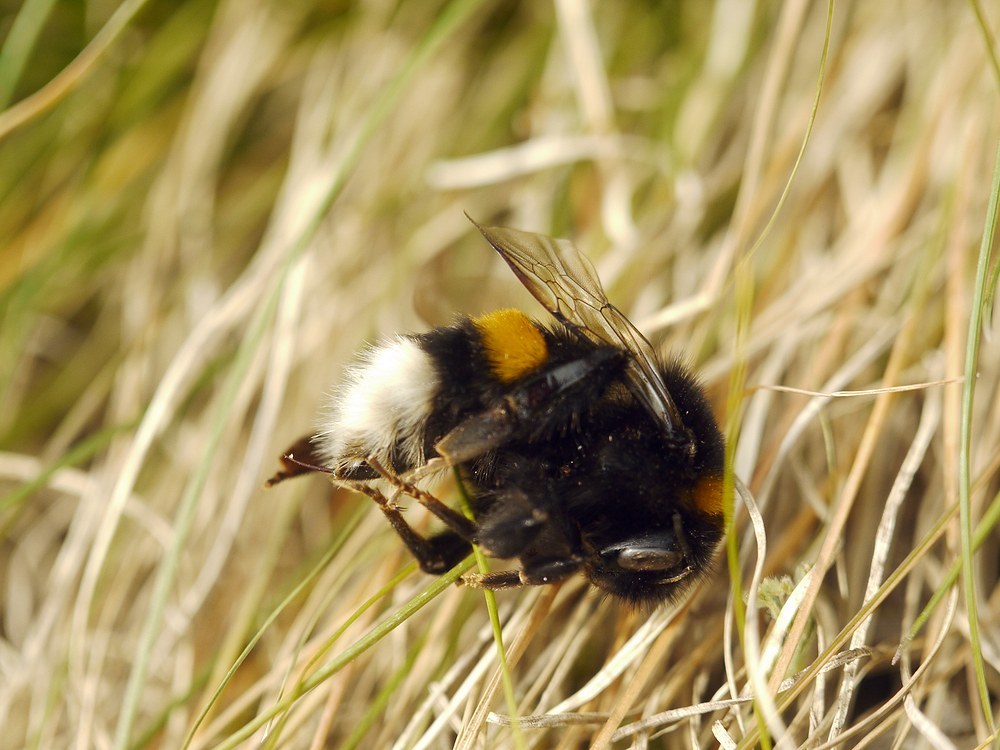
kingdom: Animalia
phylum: Arthropoda
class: Insecta
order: Hymenoptera
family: Apidae
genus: Bombus
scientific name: Bombus
